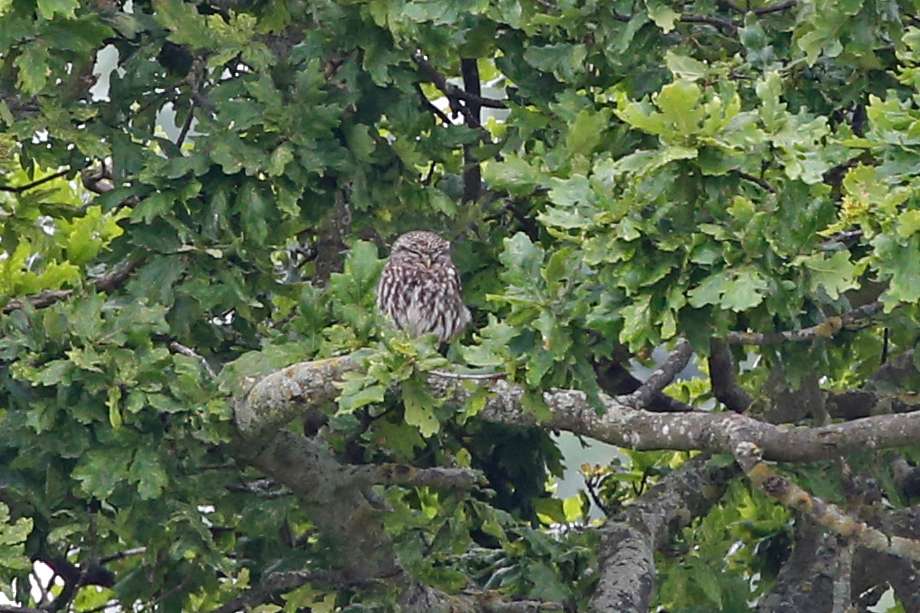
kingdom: Animalia
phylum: Chordata
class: Aves
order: Strigiformes
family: Strigidae
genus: Athene
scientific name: Athene noctua
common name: Little owl
